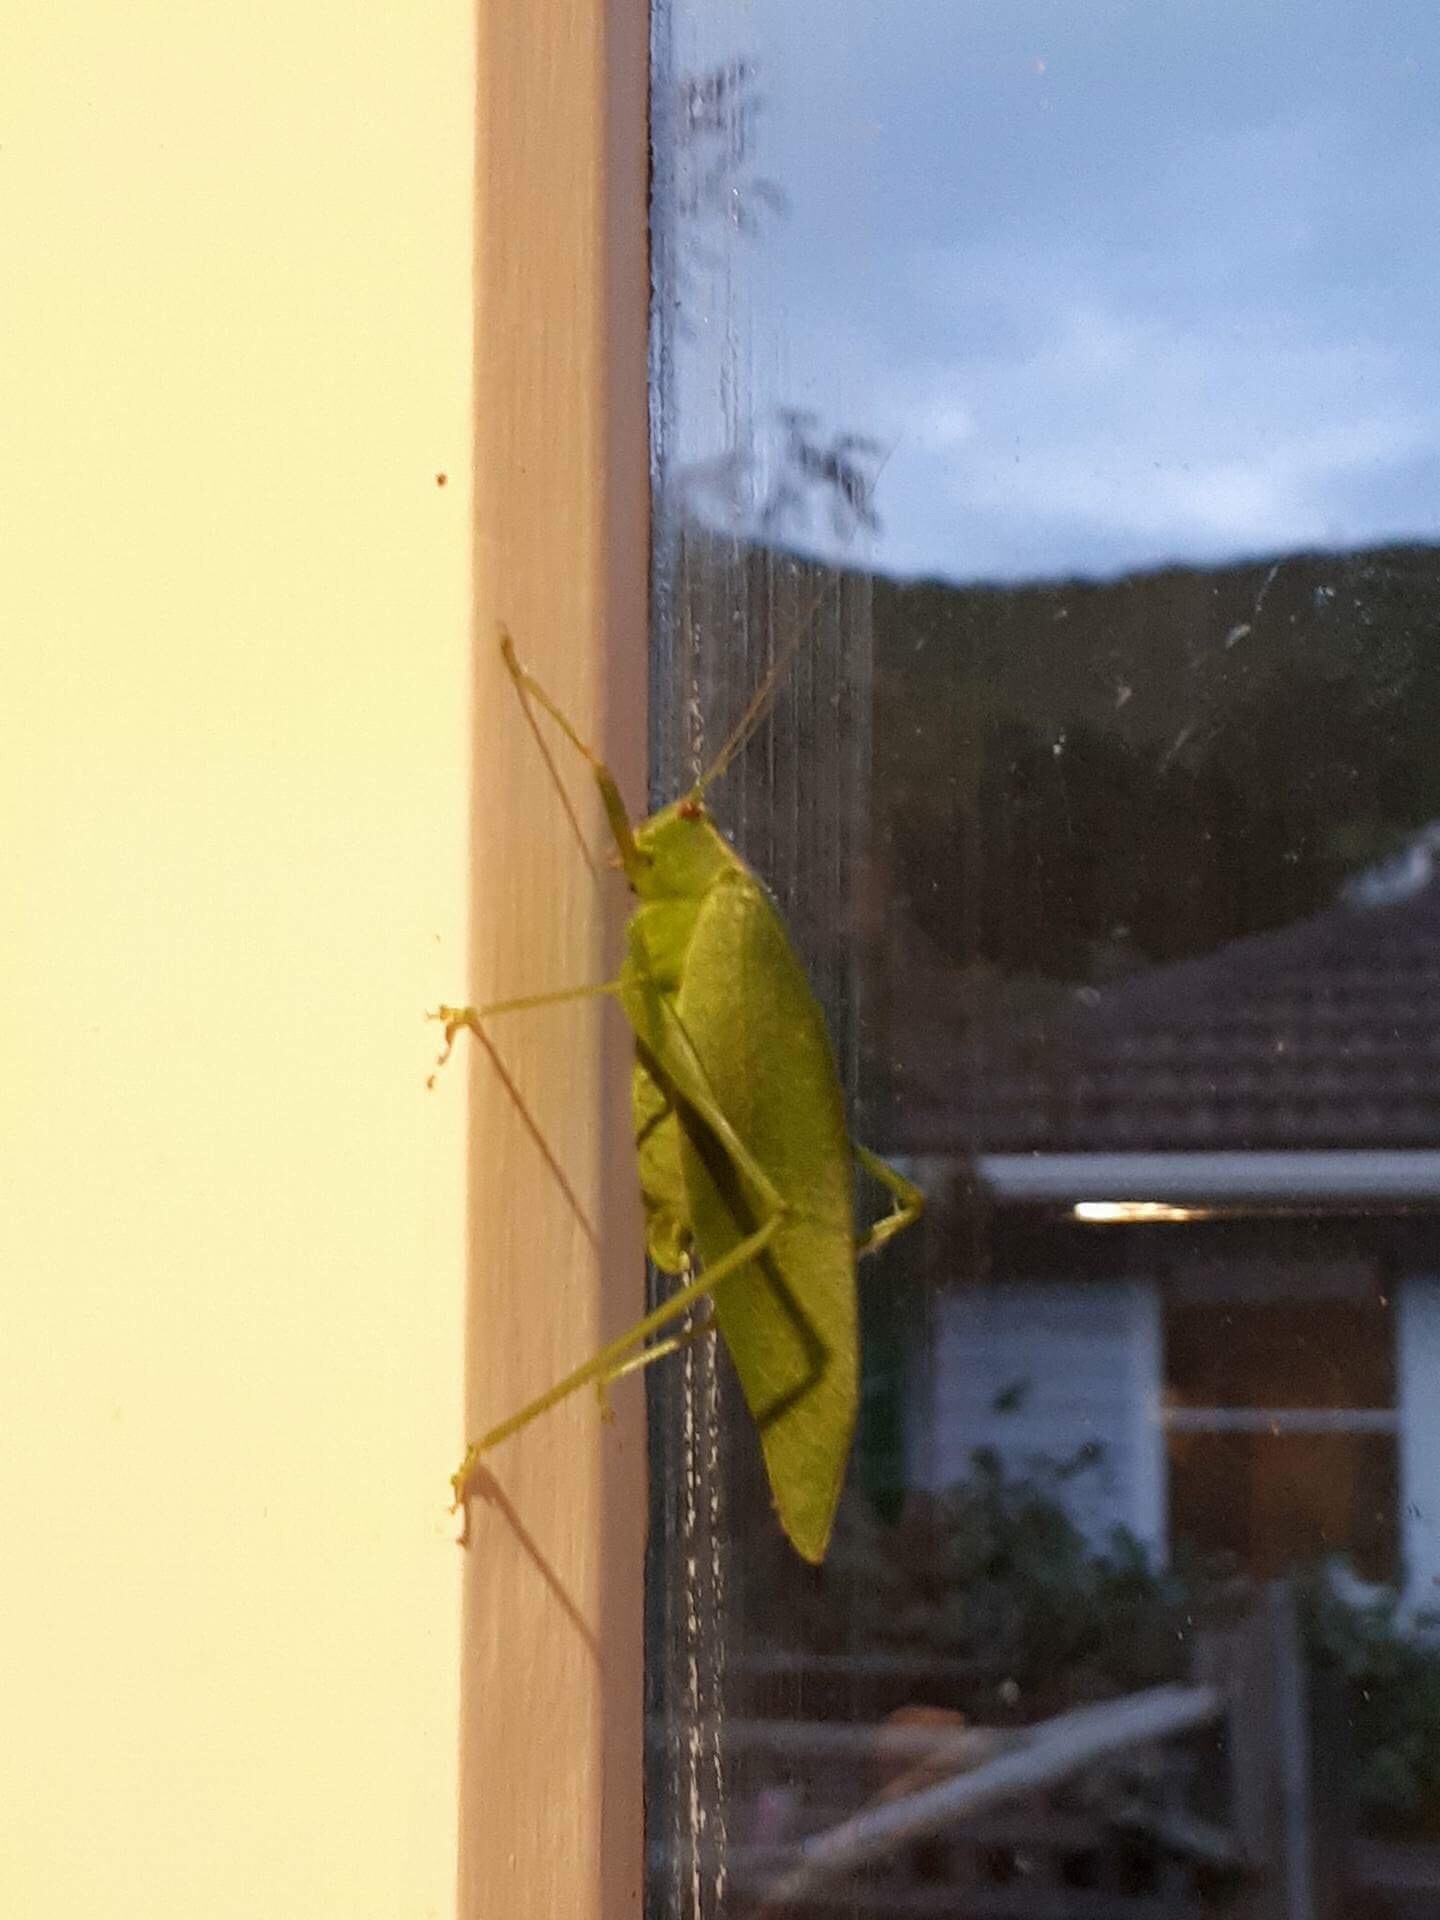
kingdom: Animalia
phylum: Arthropoda
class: Insecta
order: Orthoptera
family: Tettigoniidae
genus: Caedicia
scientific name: Caedicia simplex
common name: Common garden katydid
